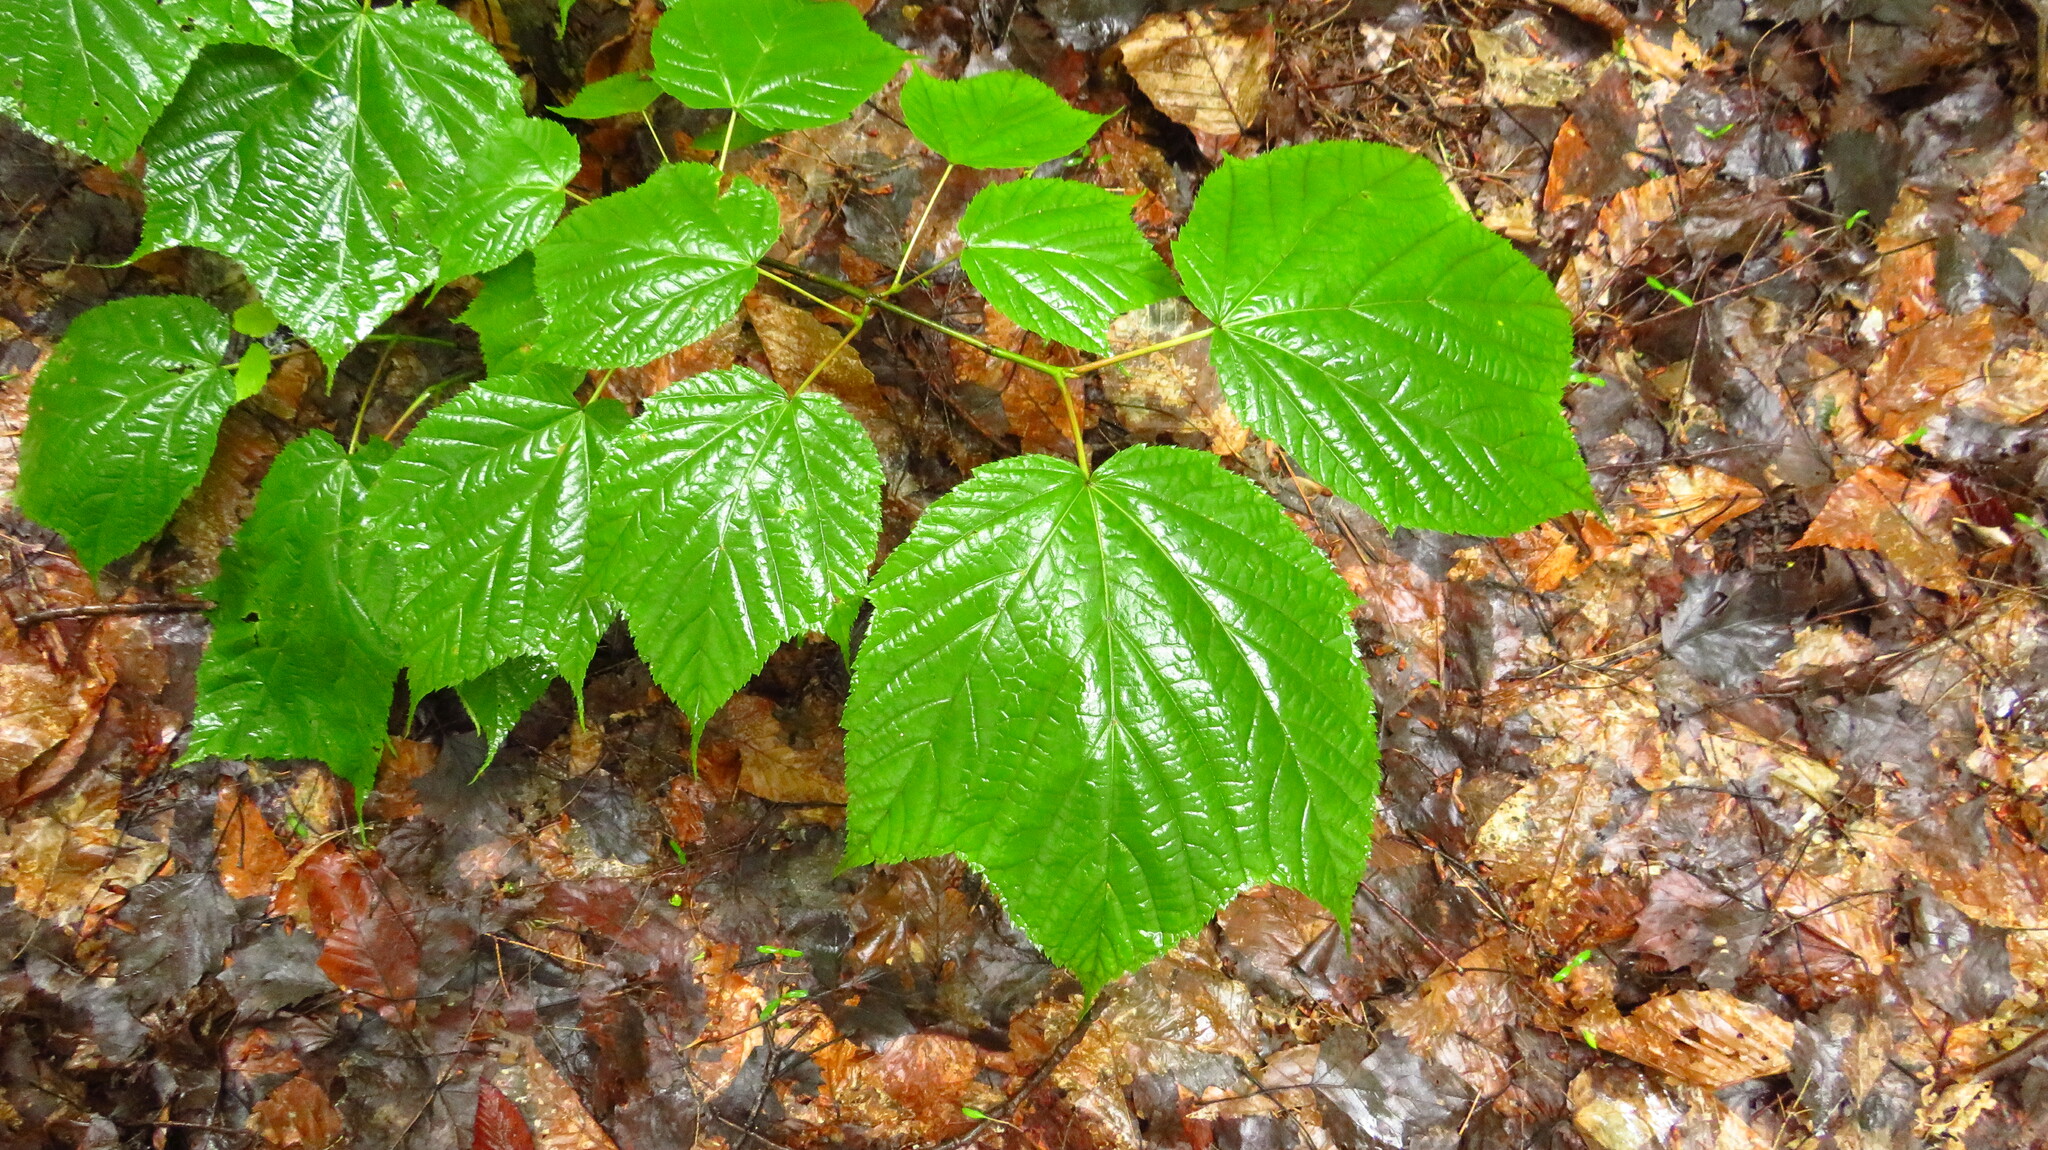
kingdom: Plantae
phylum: Tracheophyta
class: Magnoliopsida
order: Sapindales
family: Sapindaceae
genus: Acer
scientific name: Acer pensylvanicum
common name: Moosewood
